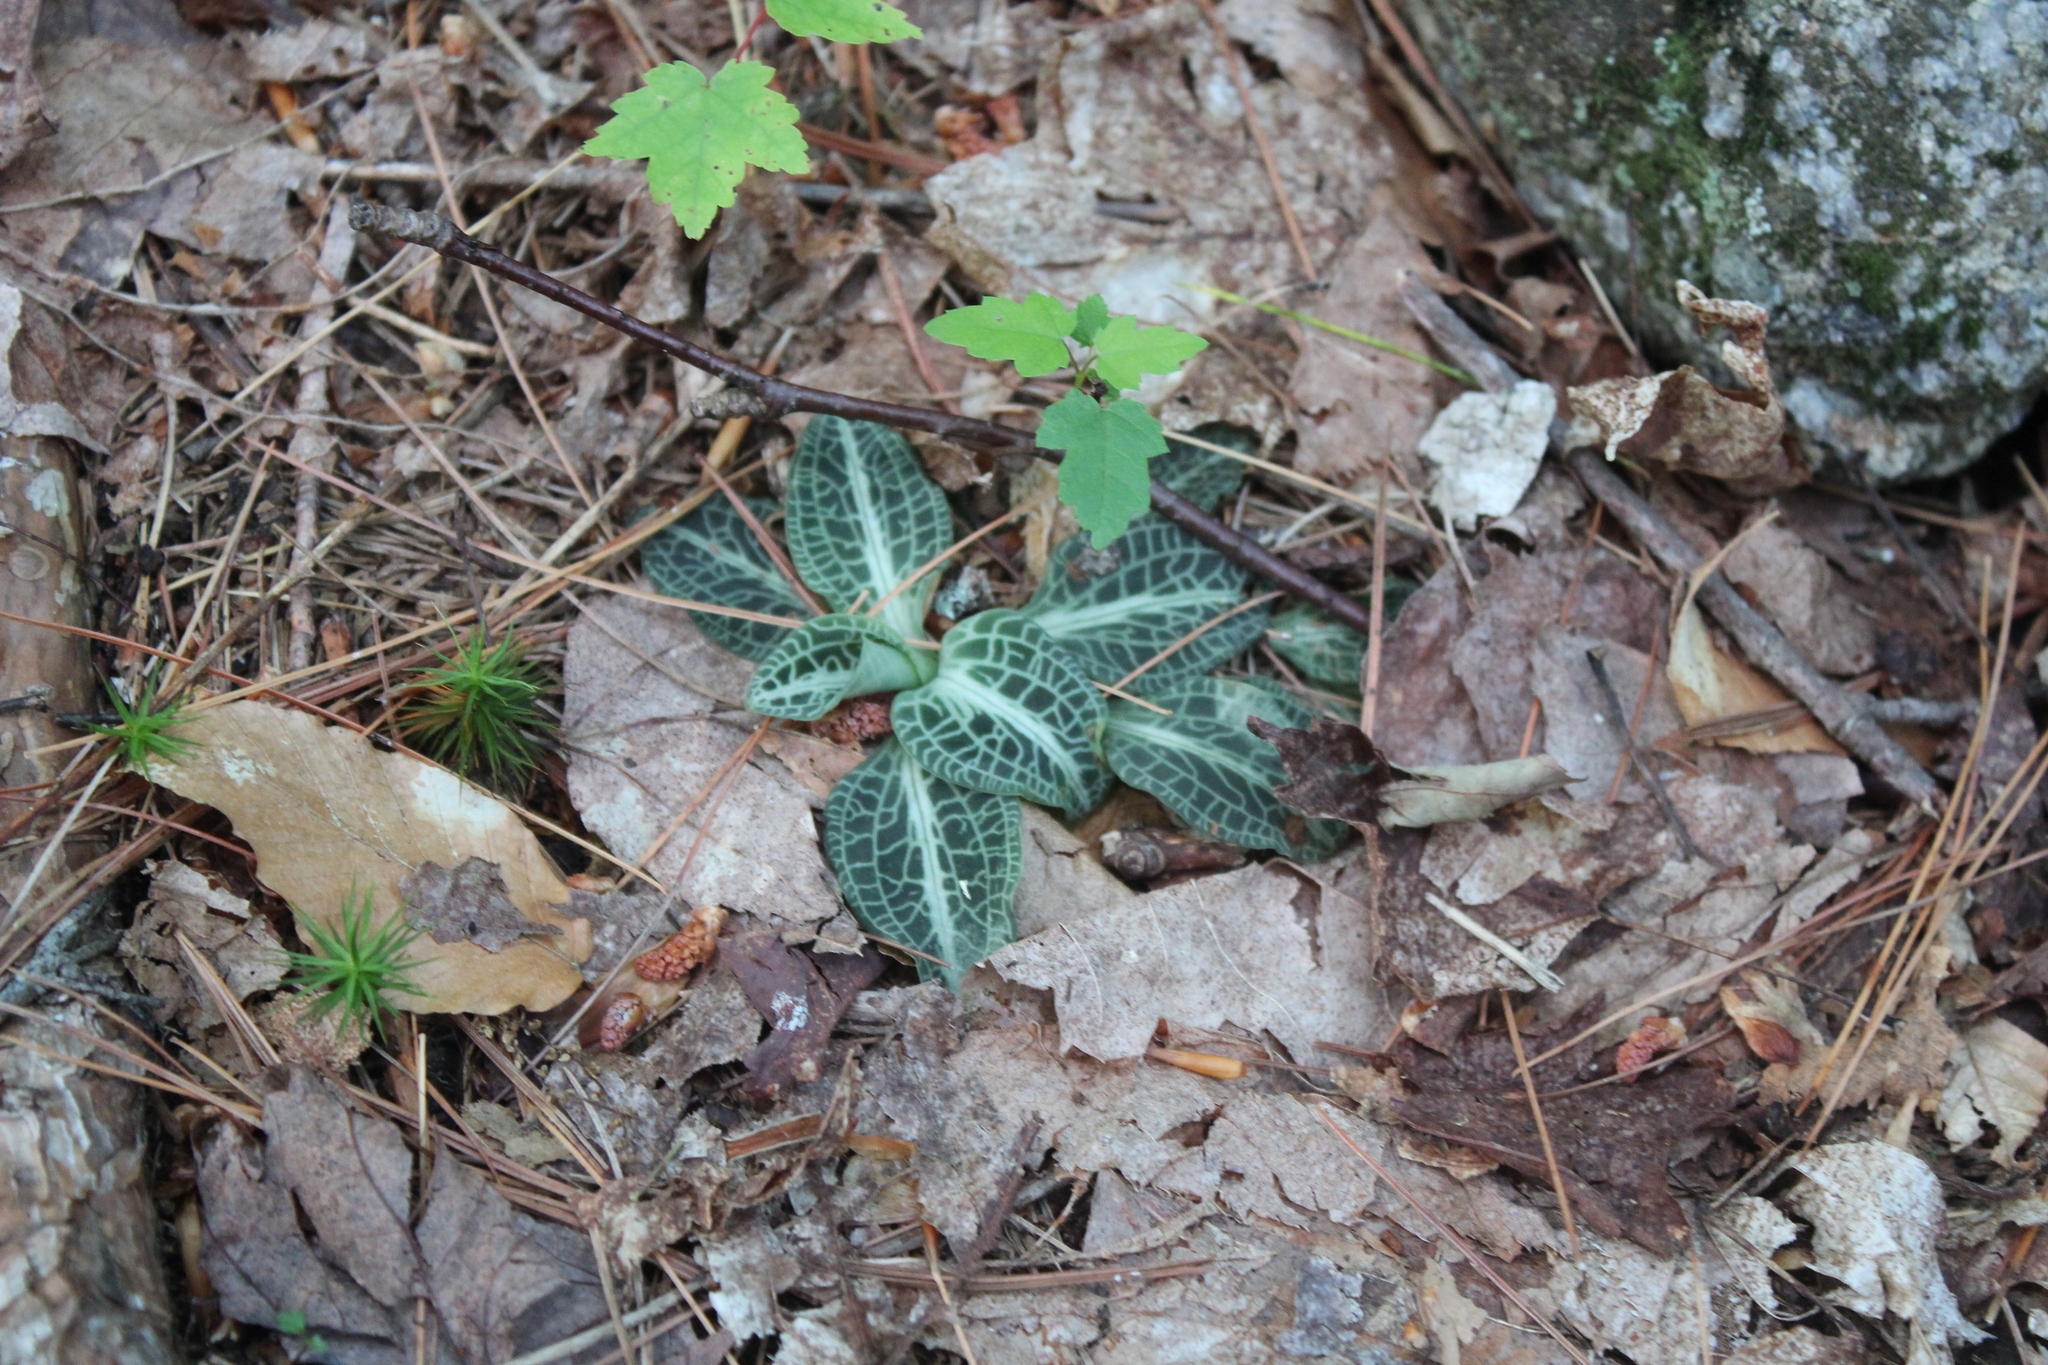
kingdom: Plantae
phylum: Tracheophyta
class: Liliopsida
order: Asparagales
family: Orchidaceae
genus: Goodyera
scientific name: Goodyera pubescens
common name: Downy rattlesnake-plantain
